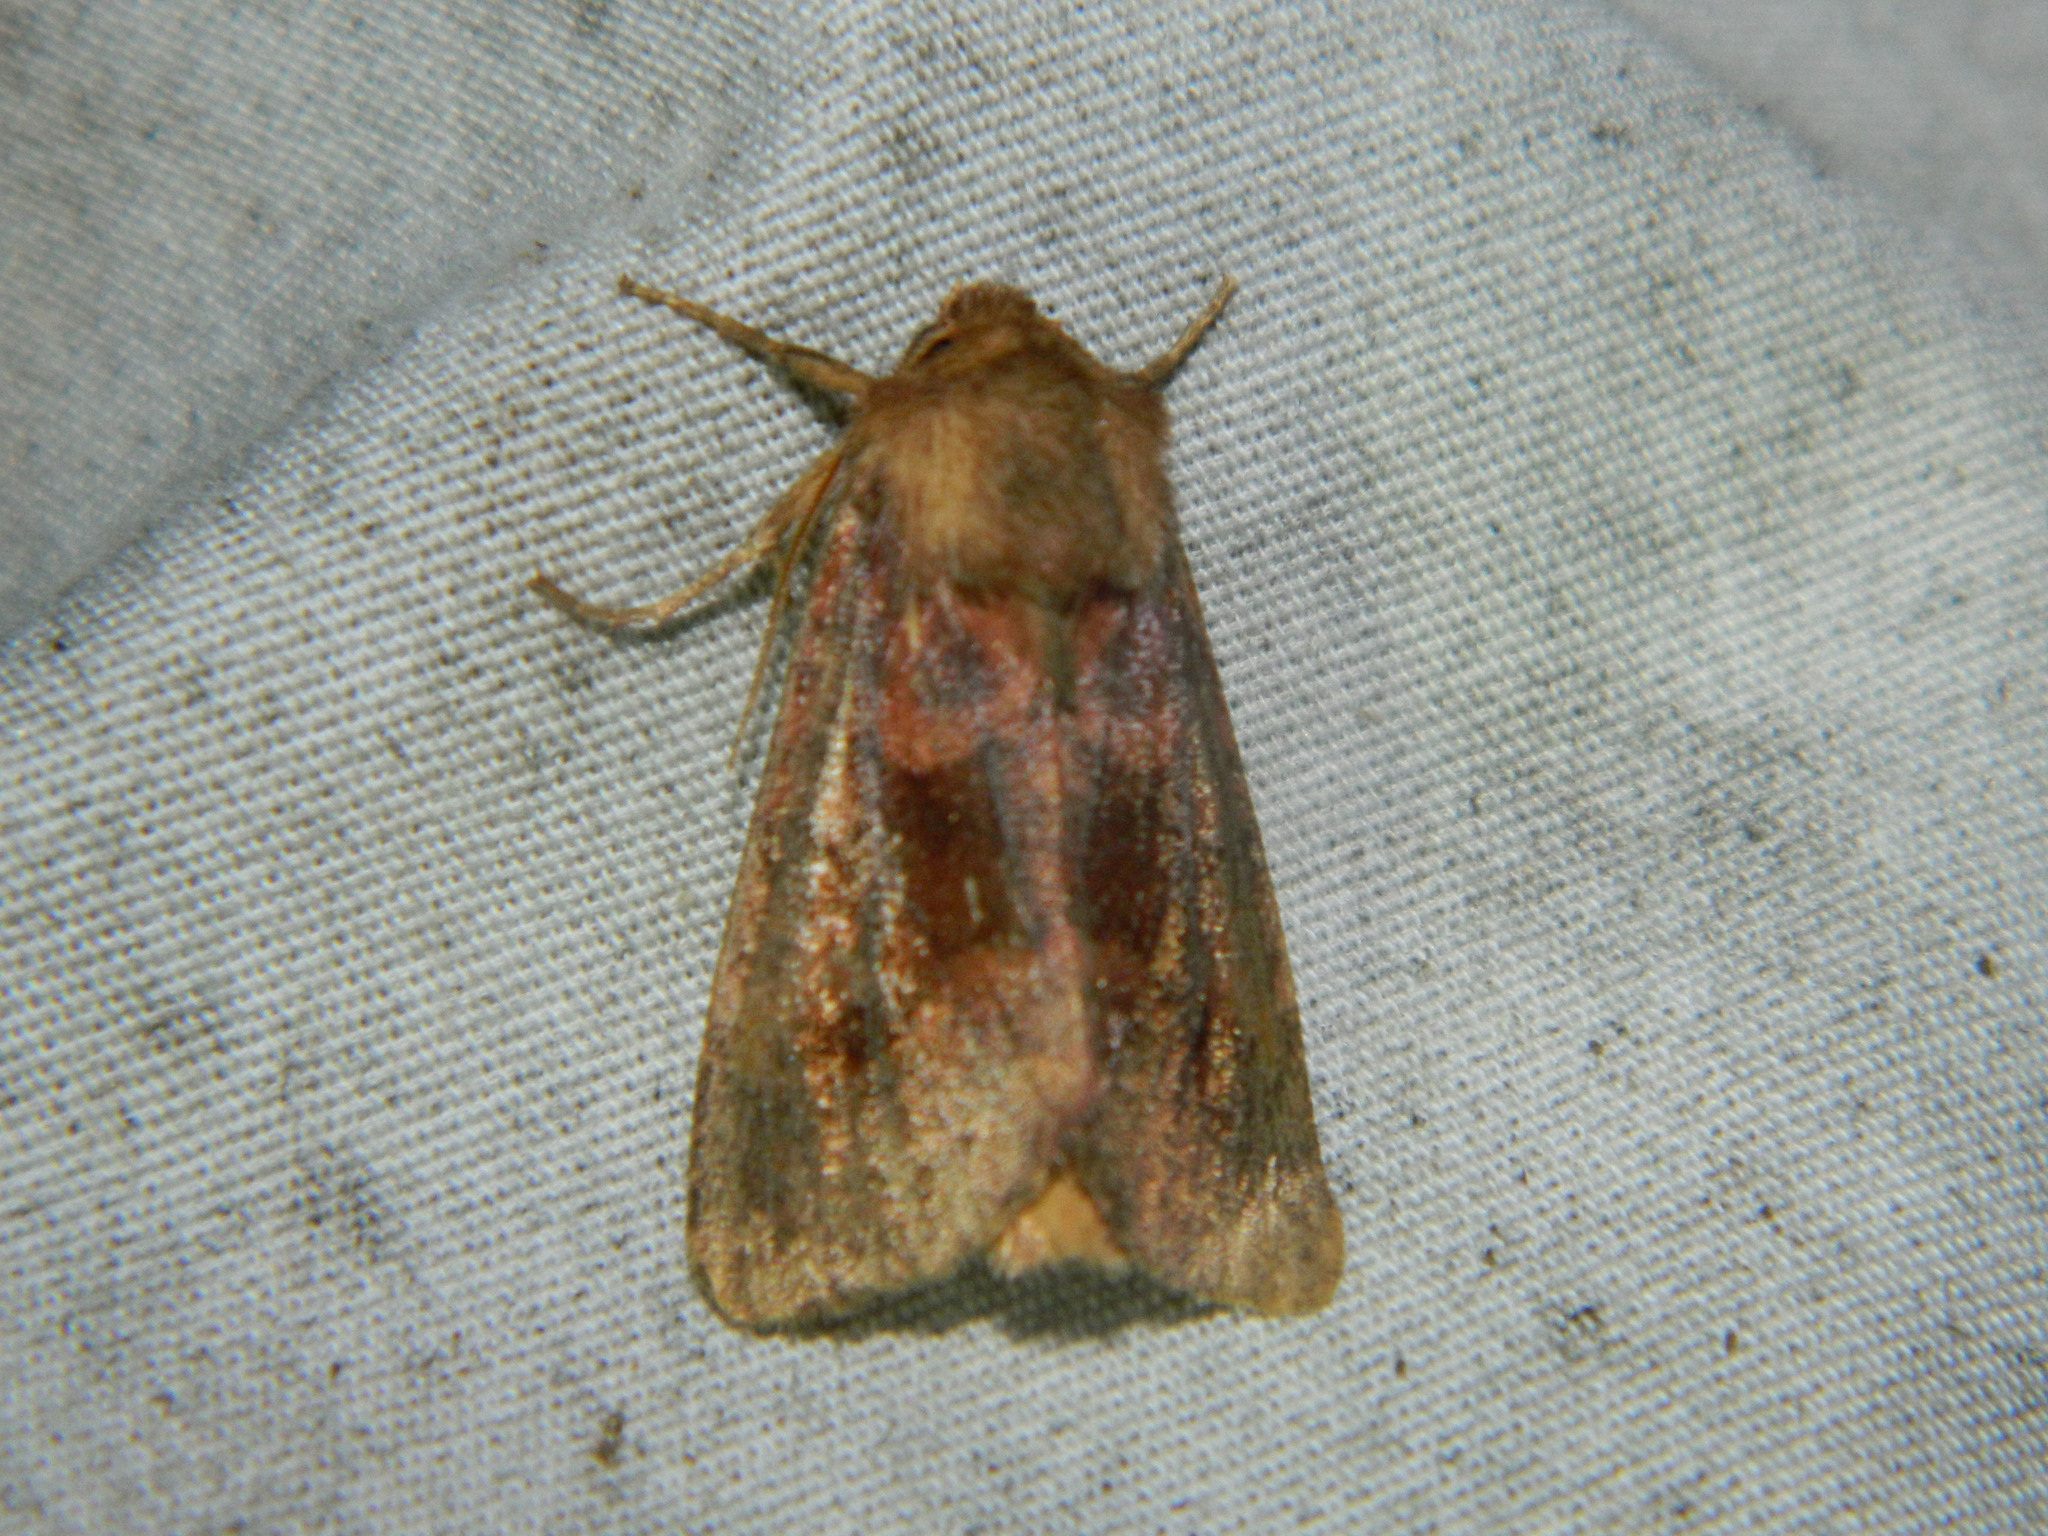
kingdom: Animalia
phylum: Arthropoda
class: Insecta
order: Lepidoptera
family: Noctuidae
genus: Nephelodes
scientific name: Nephelodes minians
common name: Bronzed cutworm
